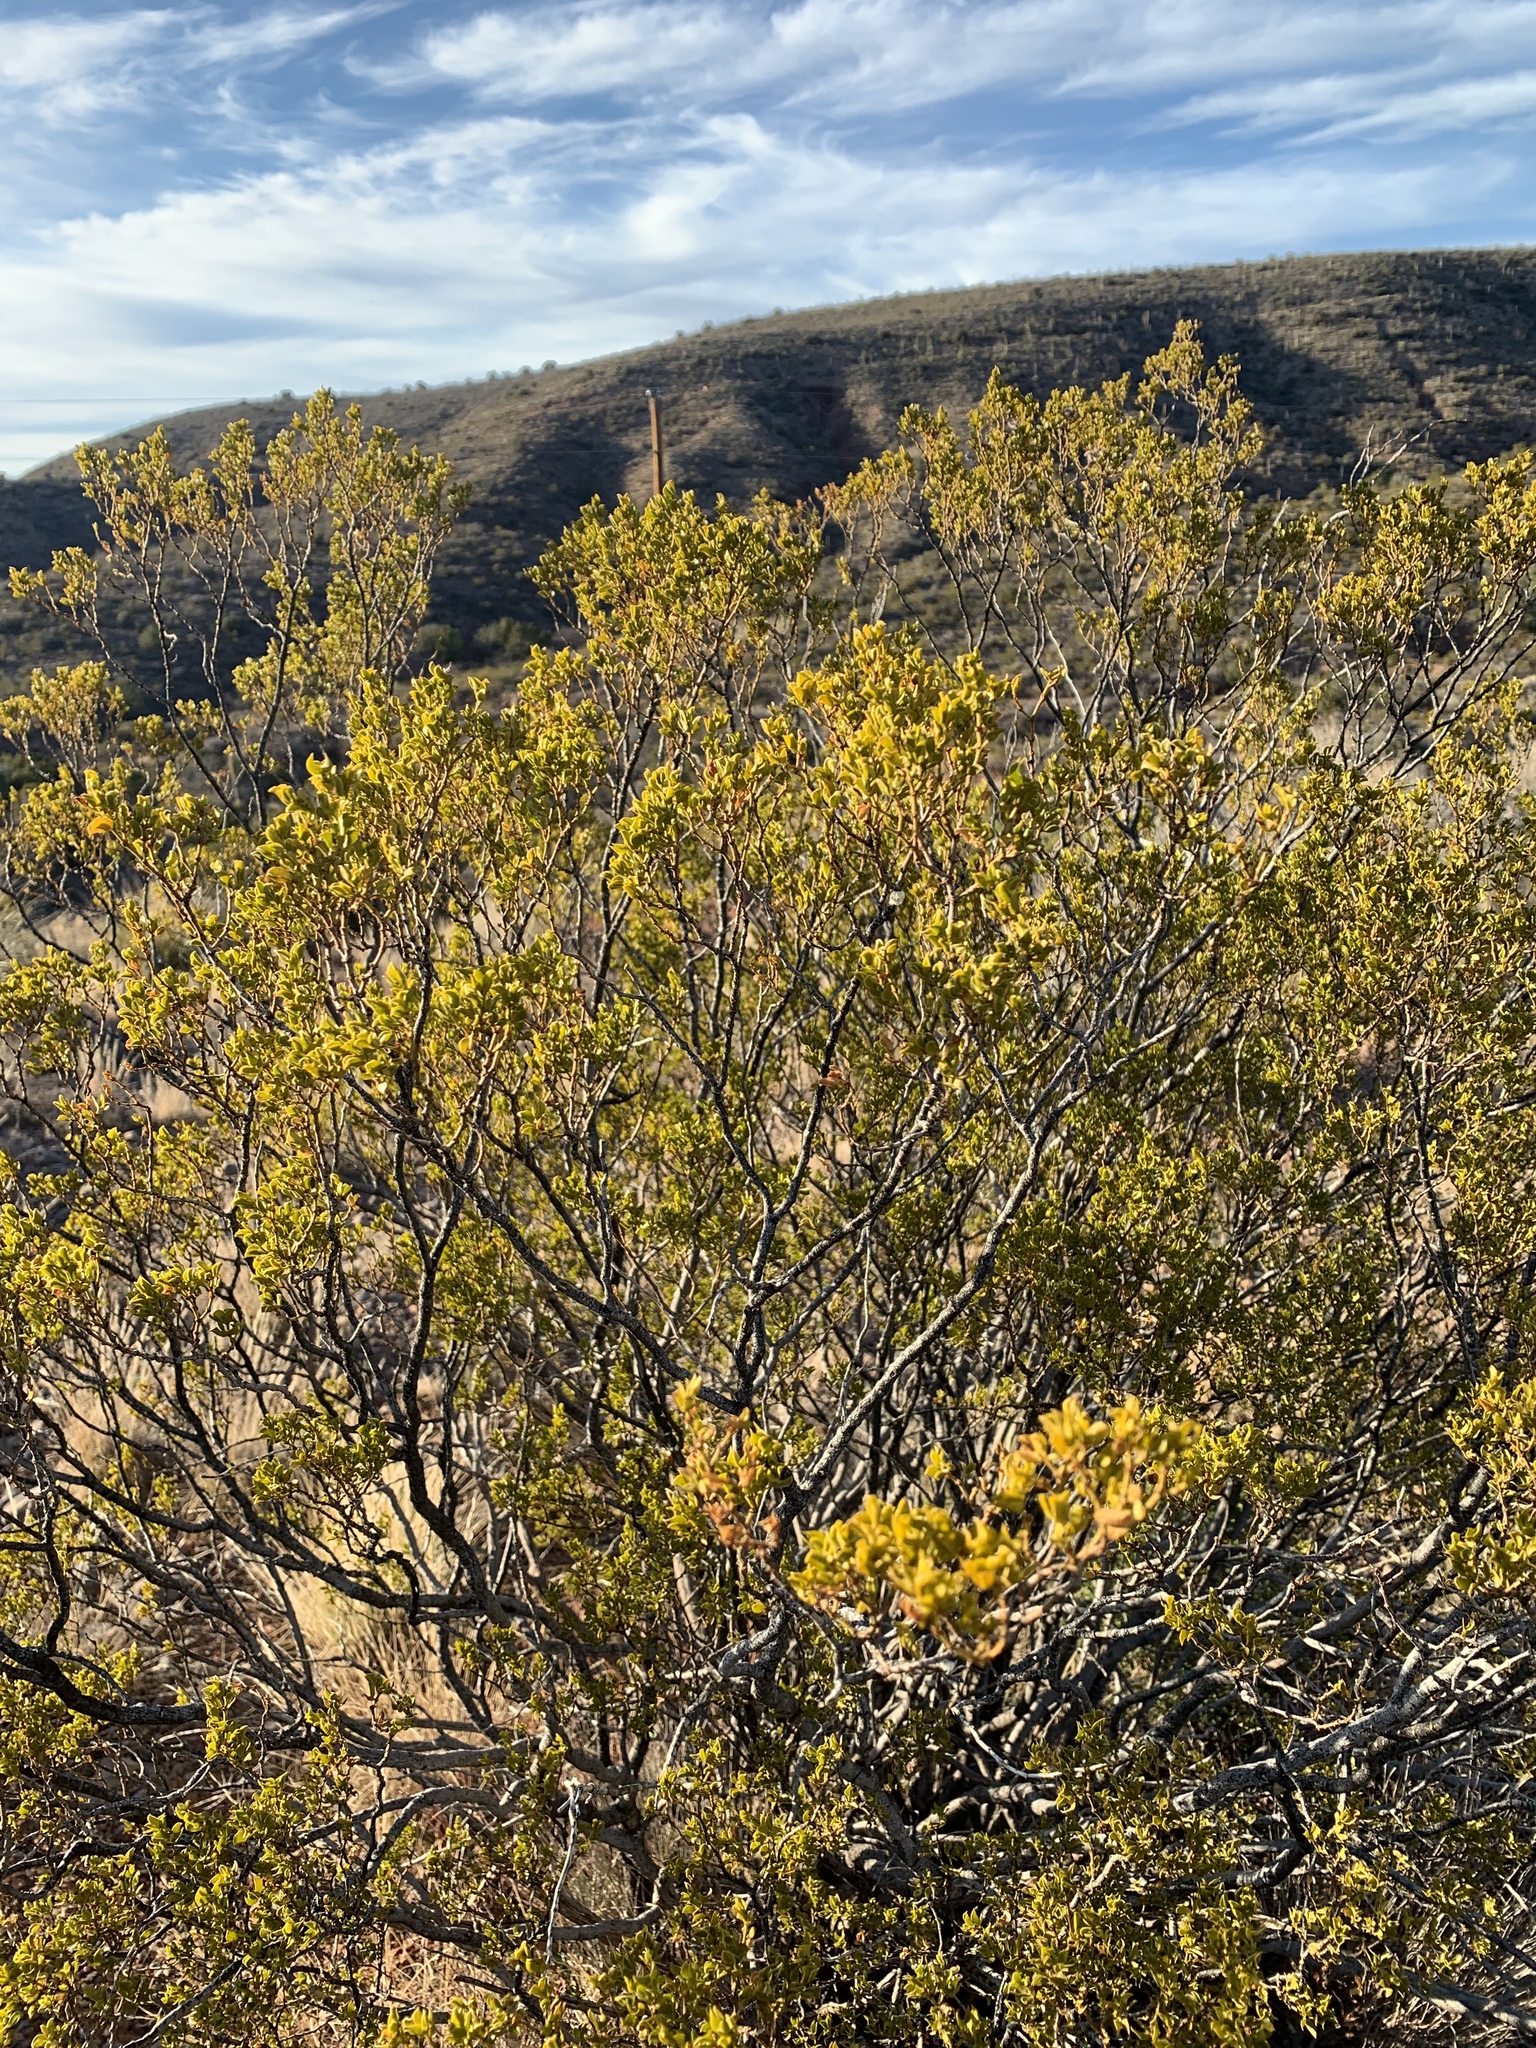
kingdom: Plantae
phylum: Tracheophyta
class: Magnoliopsida
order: Zygophyllales
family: Zygophyllaceae
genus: Larrea
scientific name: Larrea tridentata
